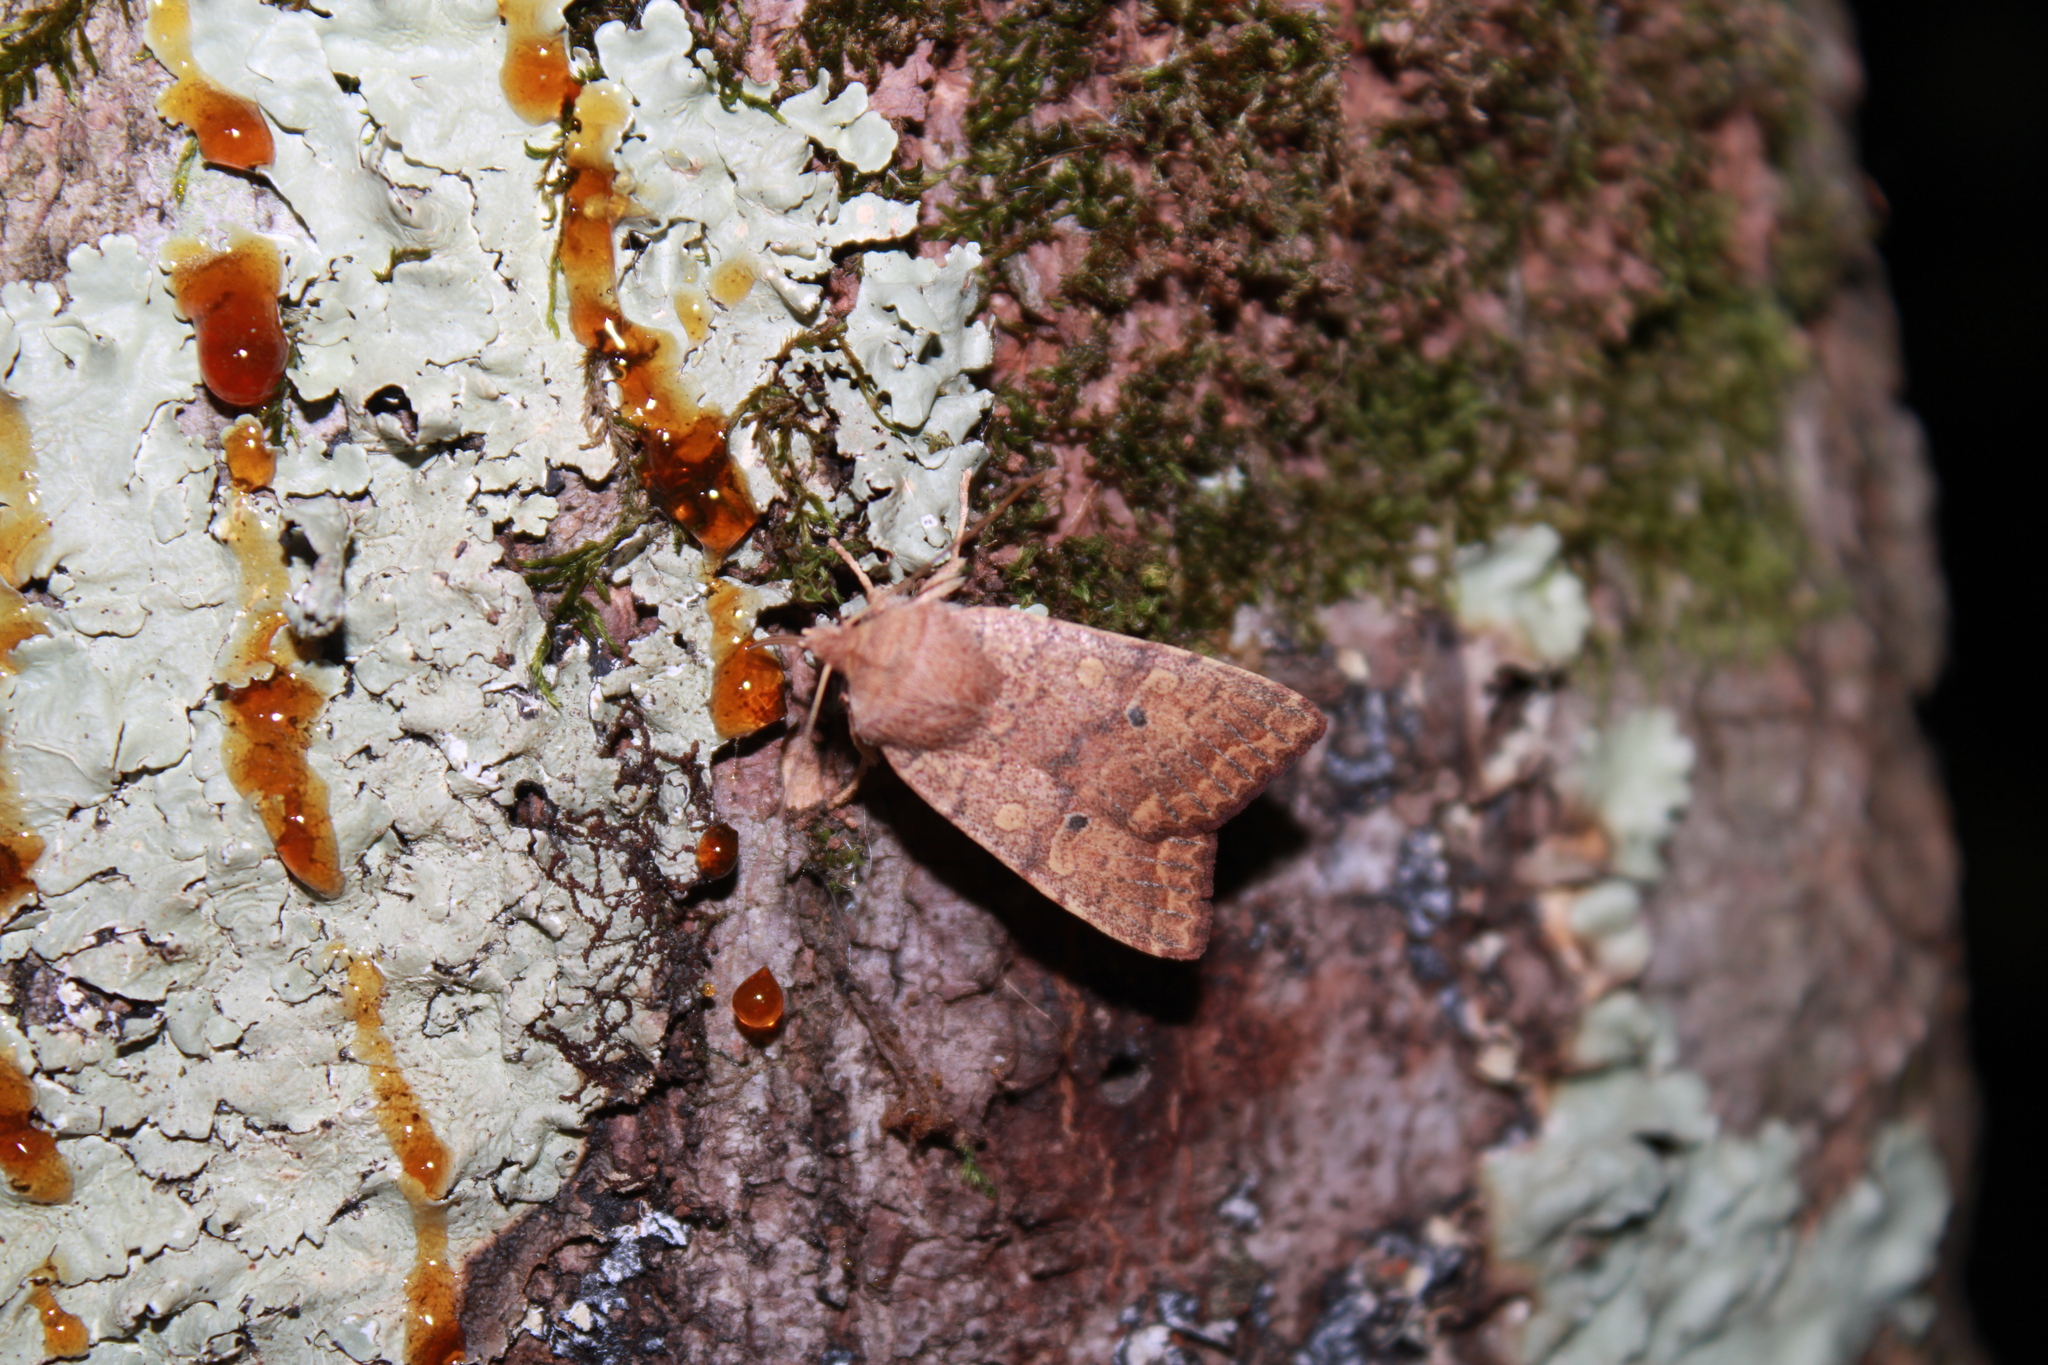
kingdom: Animalia
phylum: Arthropoda
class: Insecta
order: Lepidoptera
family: Noctuidae
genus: Agrochola
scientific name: Agrochola bicolorago
